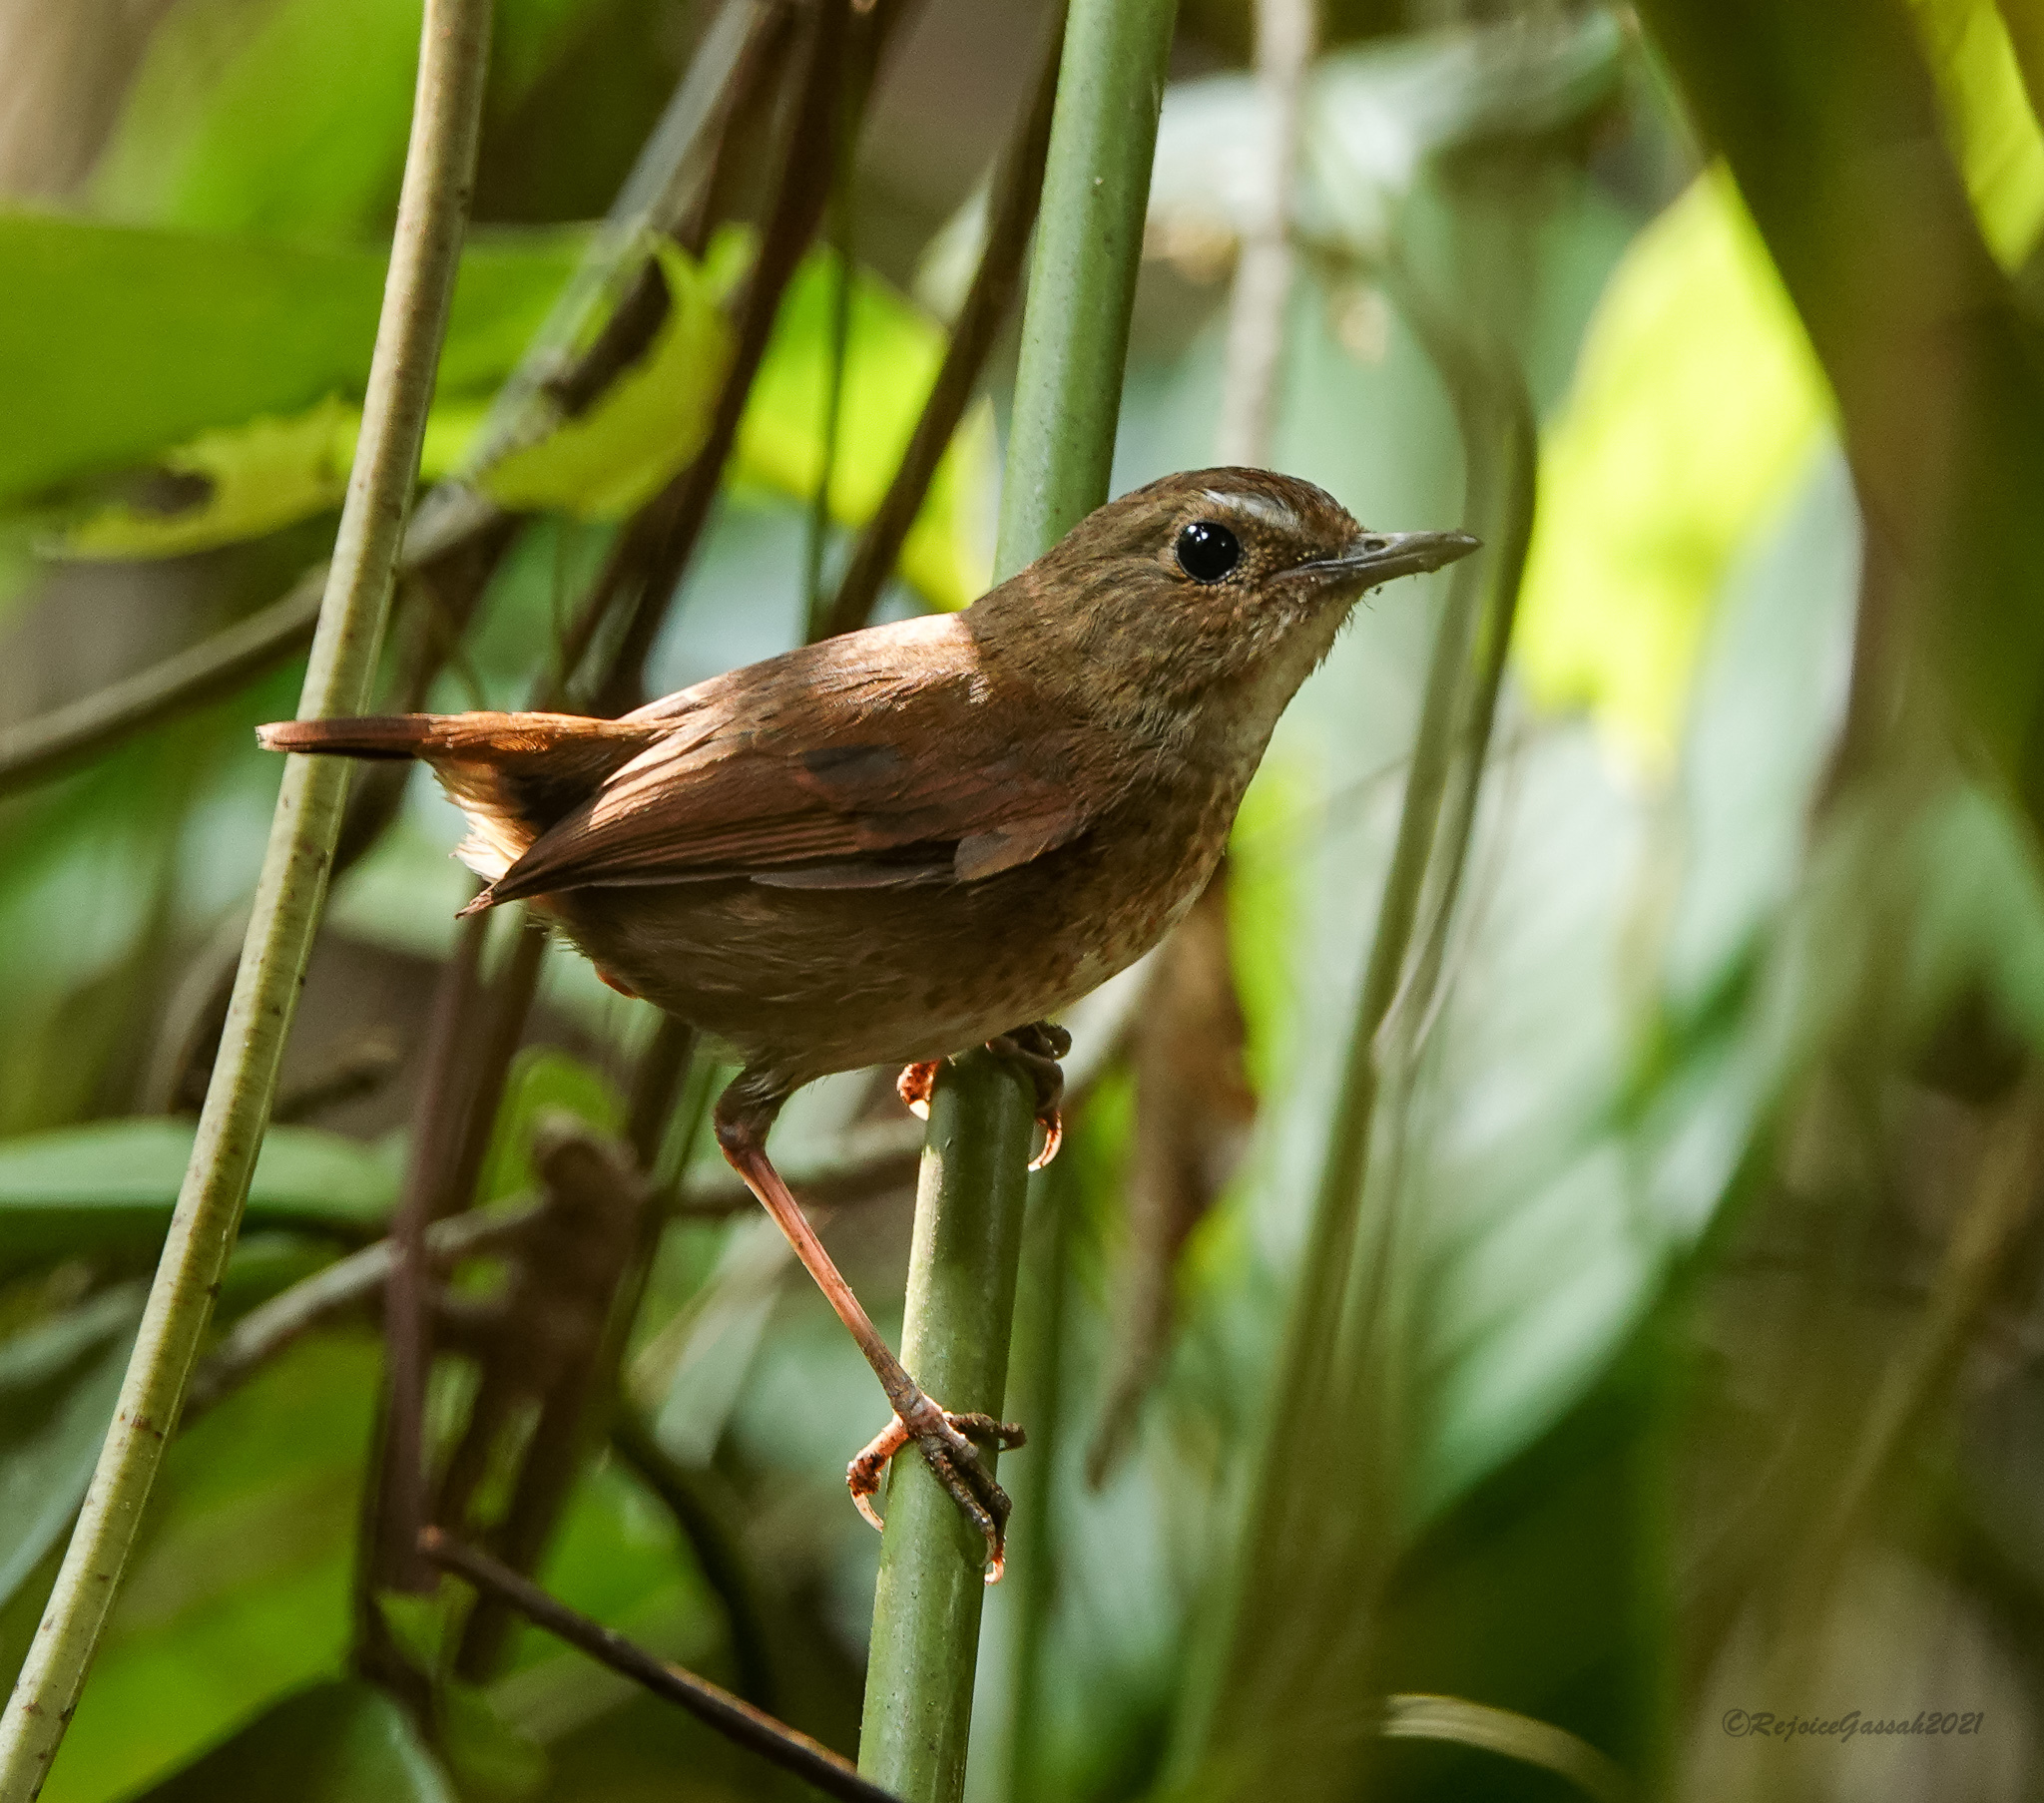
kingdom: Animalia
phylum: Chordata
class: Aves
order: Passeriformes
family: Muscicapidae
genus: Brachypteryx
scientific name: Brachypteryx leucophris
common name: Lesser shortwing
